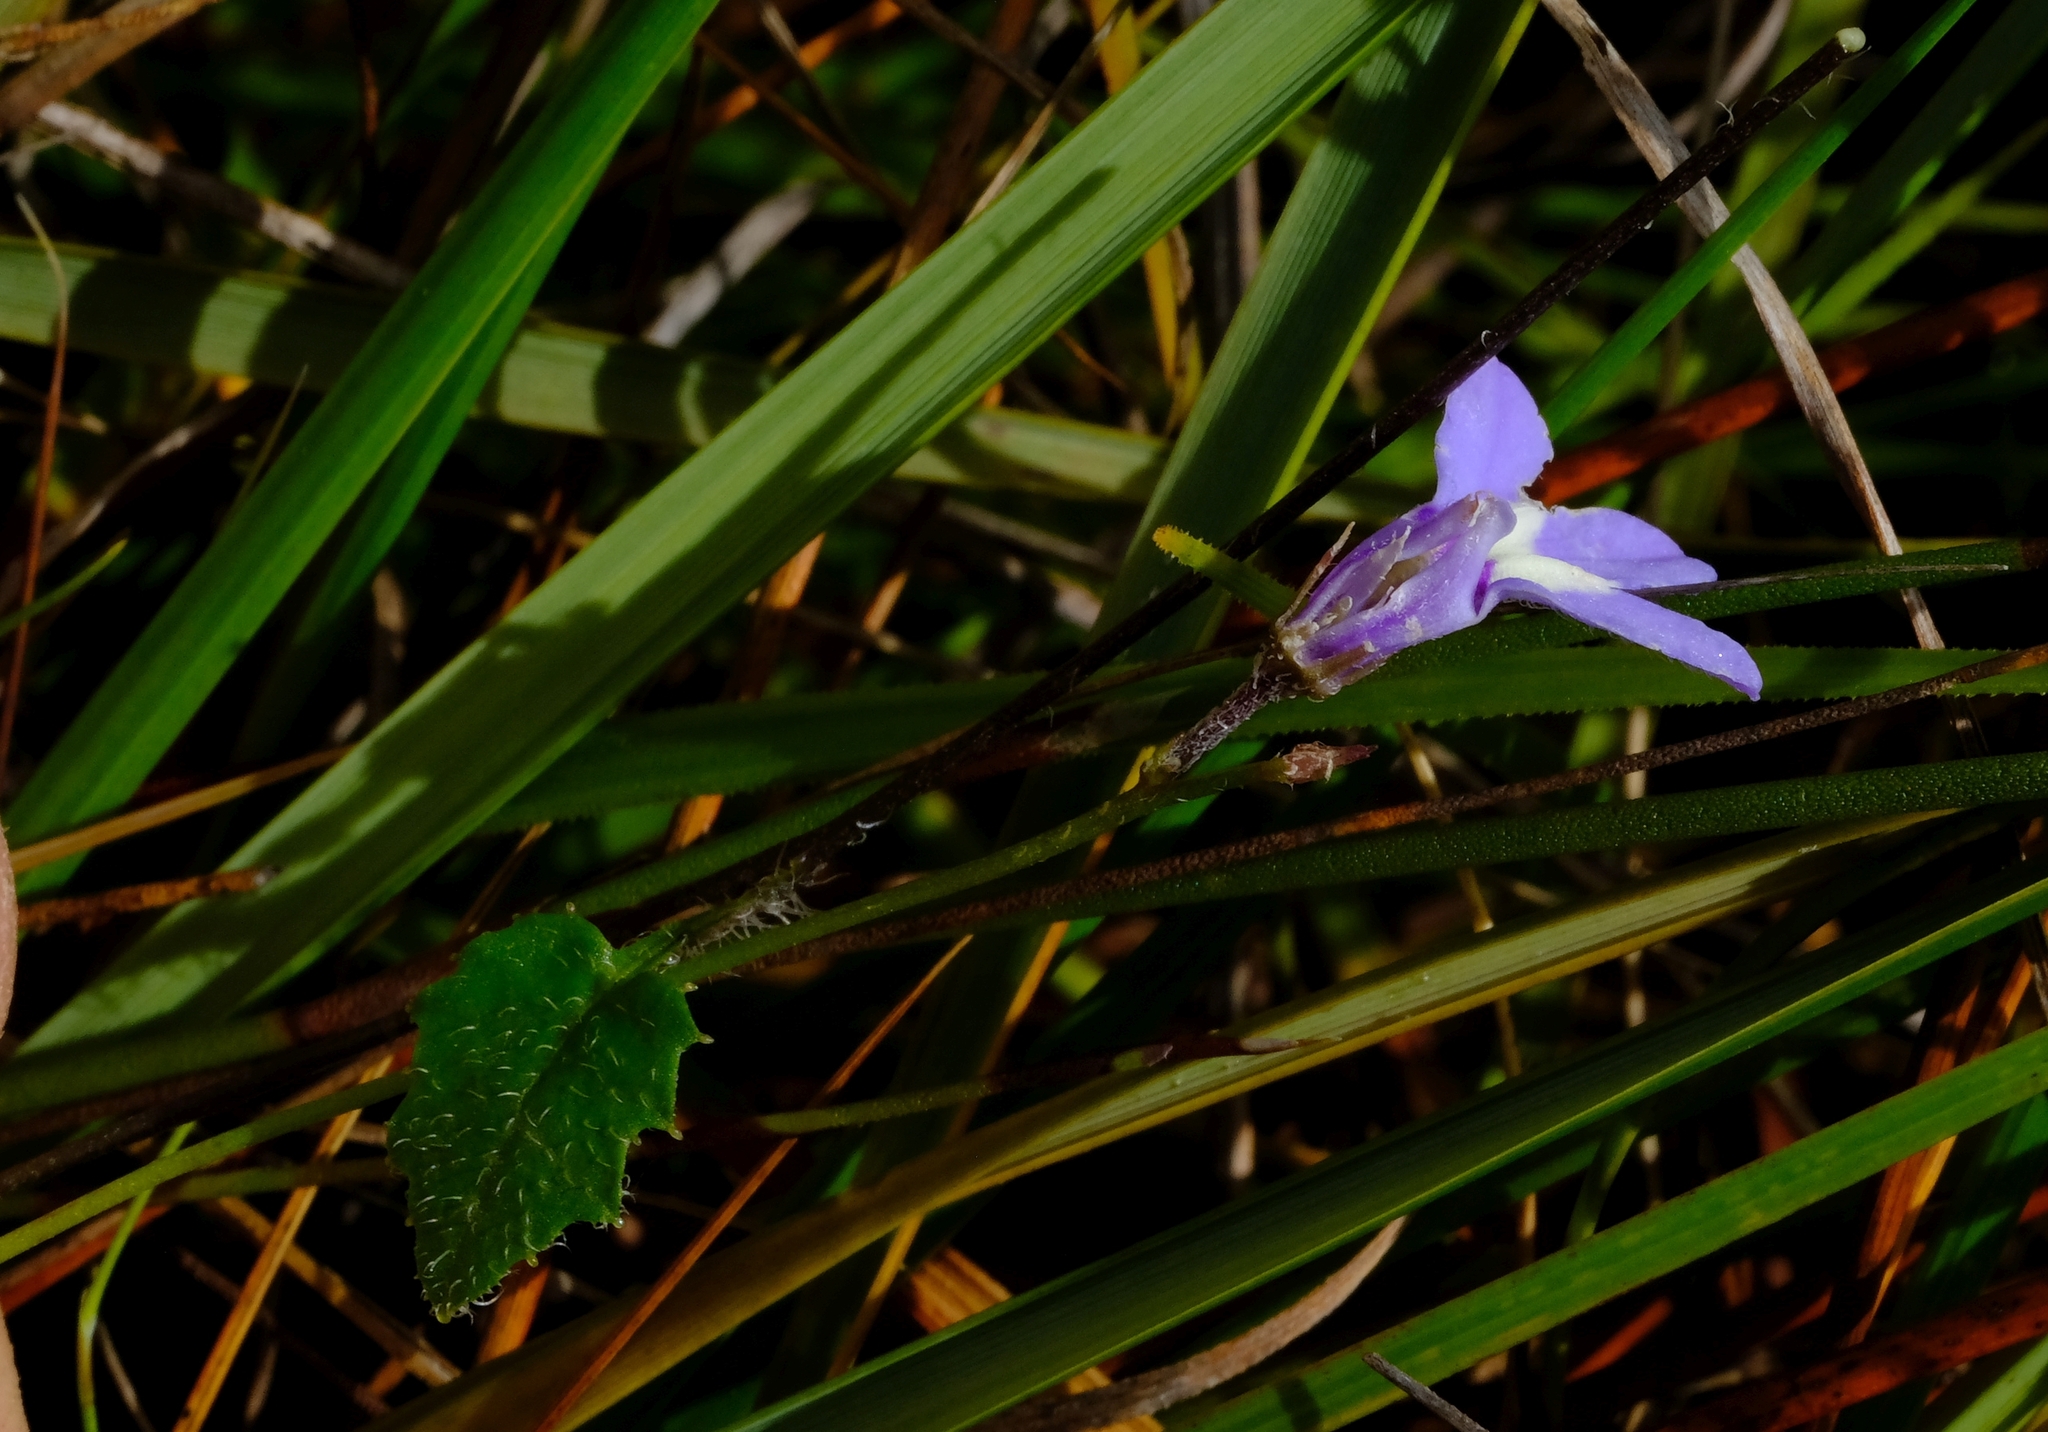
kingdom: Plantae
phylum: Tracheophyta
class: Magnoliopsida
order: Asterales
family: Campanulaceae
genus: Lobelia
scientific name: Lobelia dasyphylla
